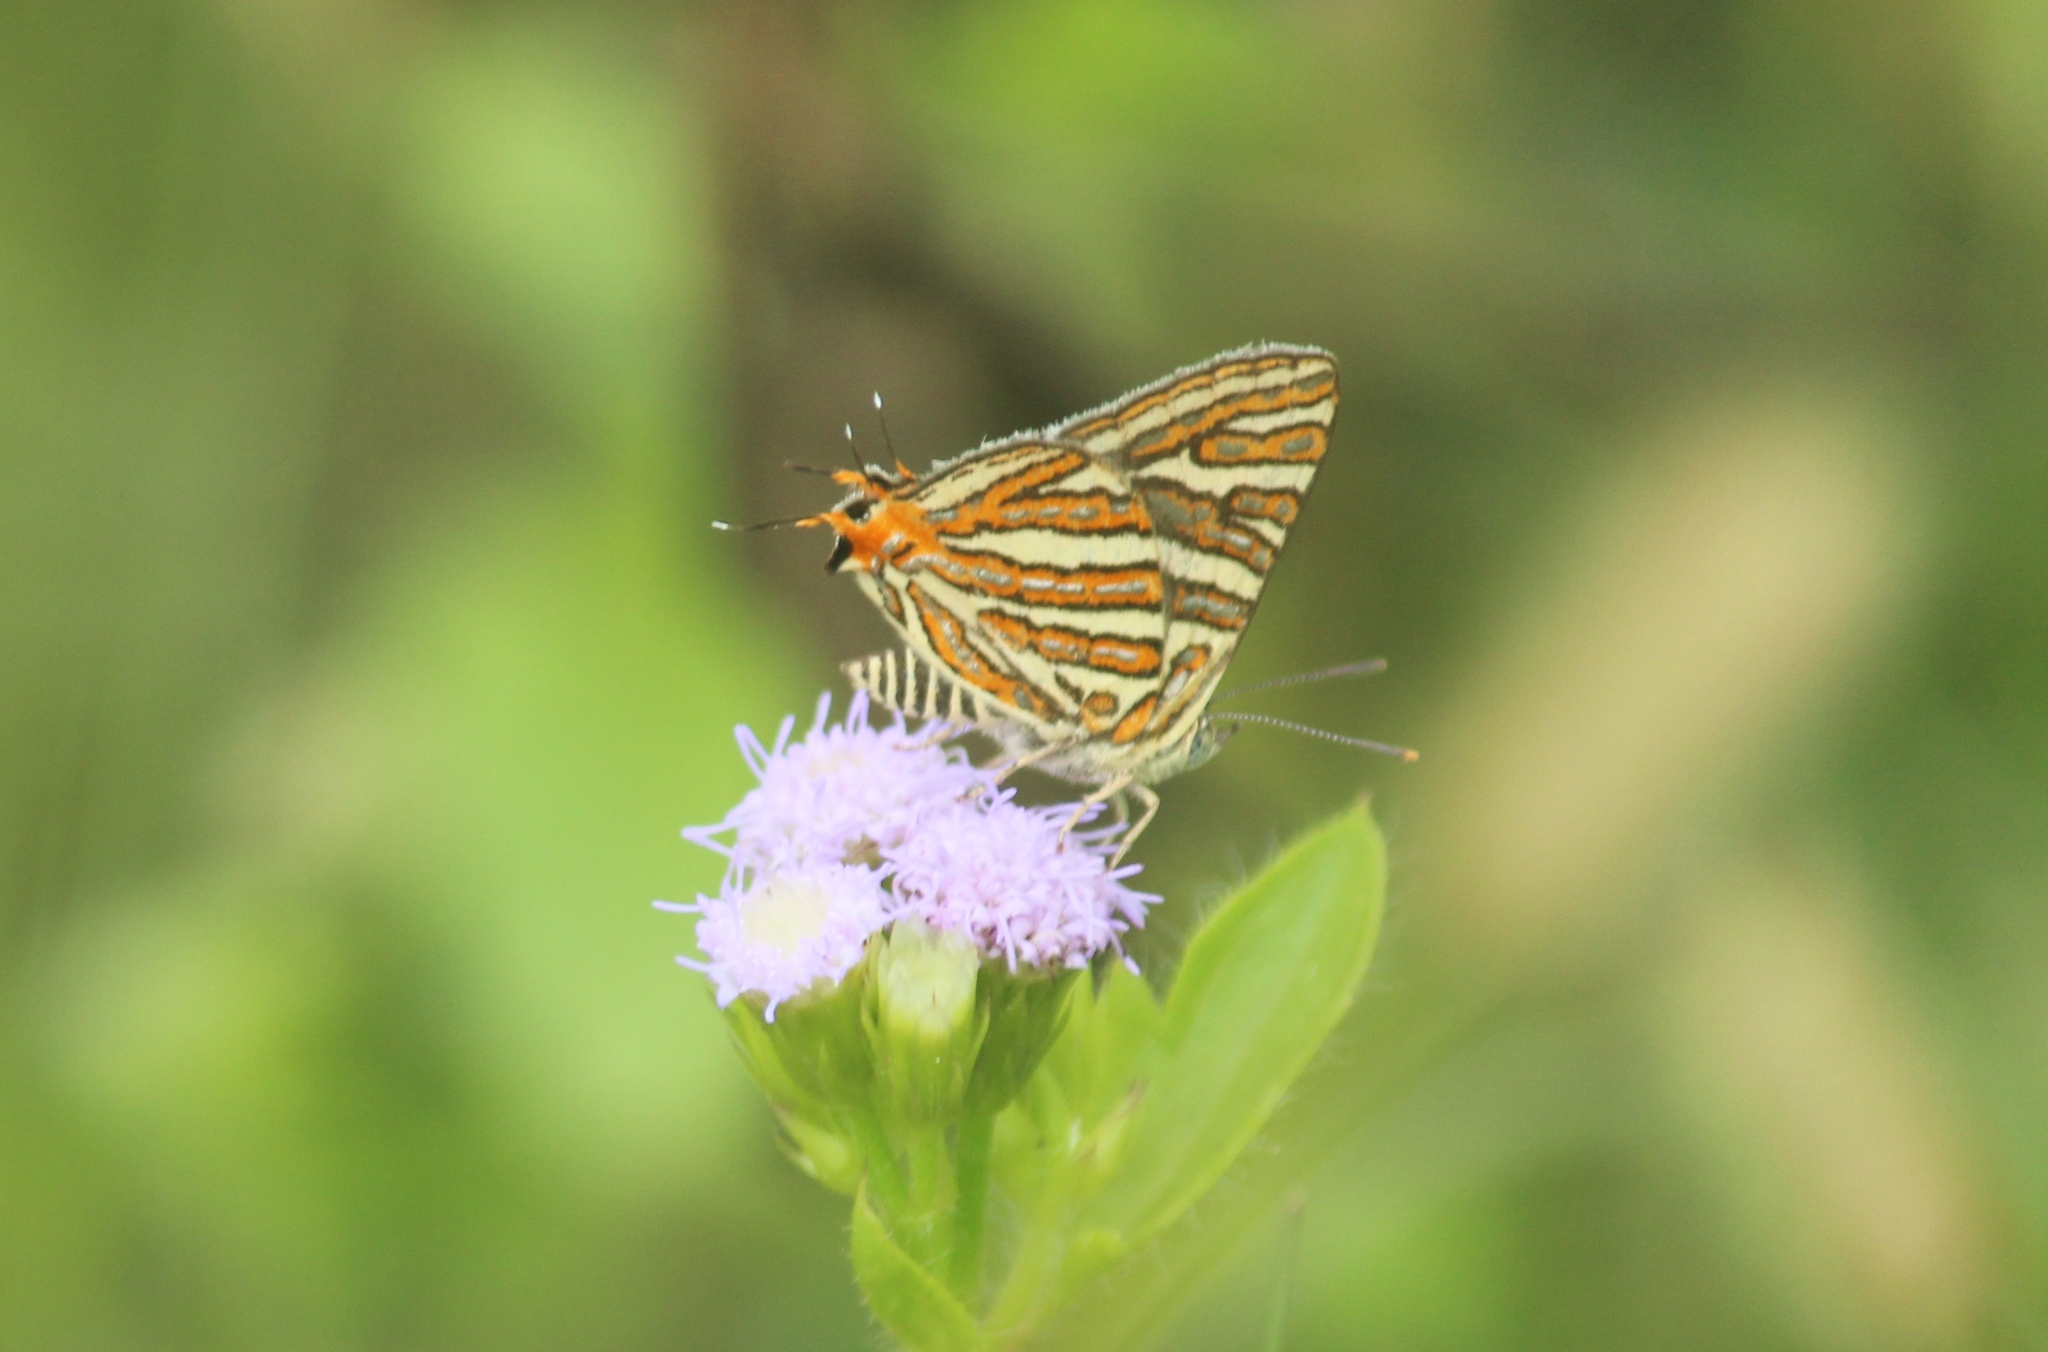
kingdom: Animalia
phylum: Arthropoda
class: Insecta
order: Lepidoptera
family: Lycaenidae
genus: Cigaritis
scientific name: Cigaritis vulcanus
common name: Common silverline
